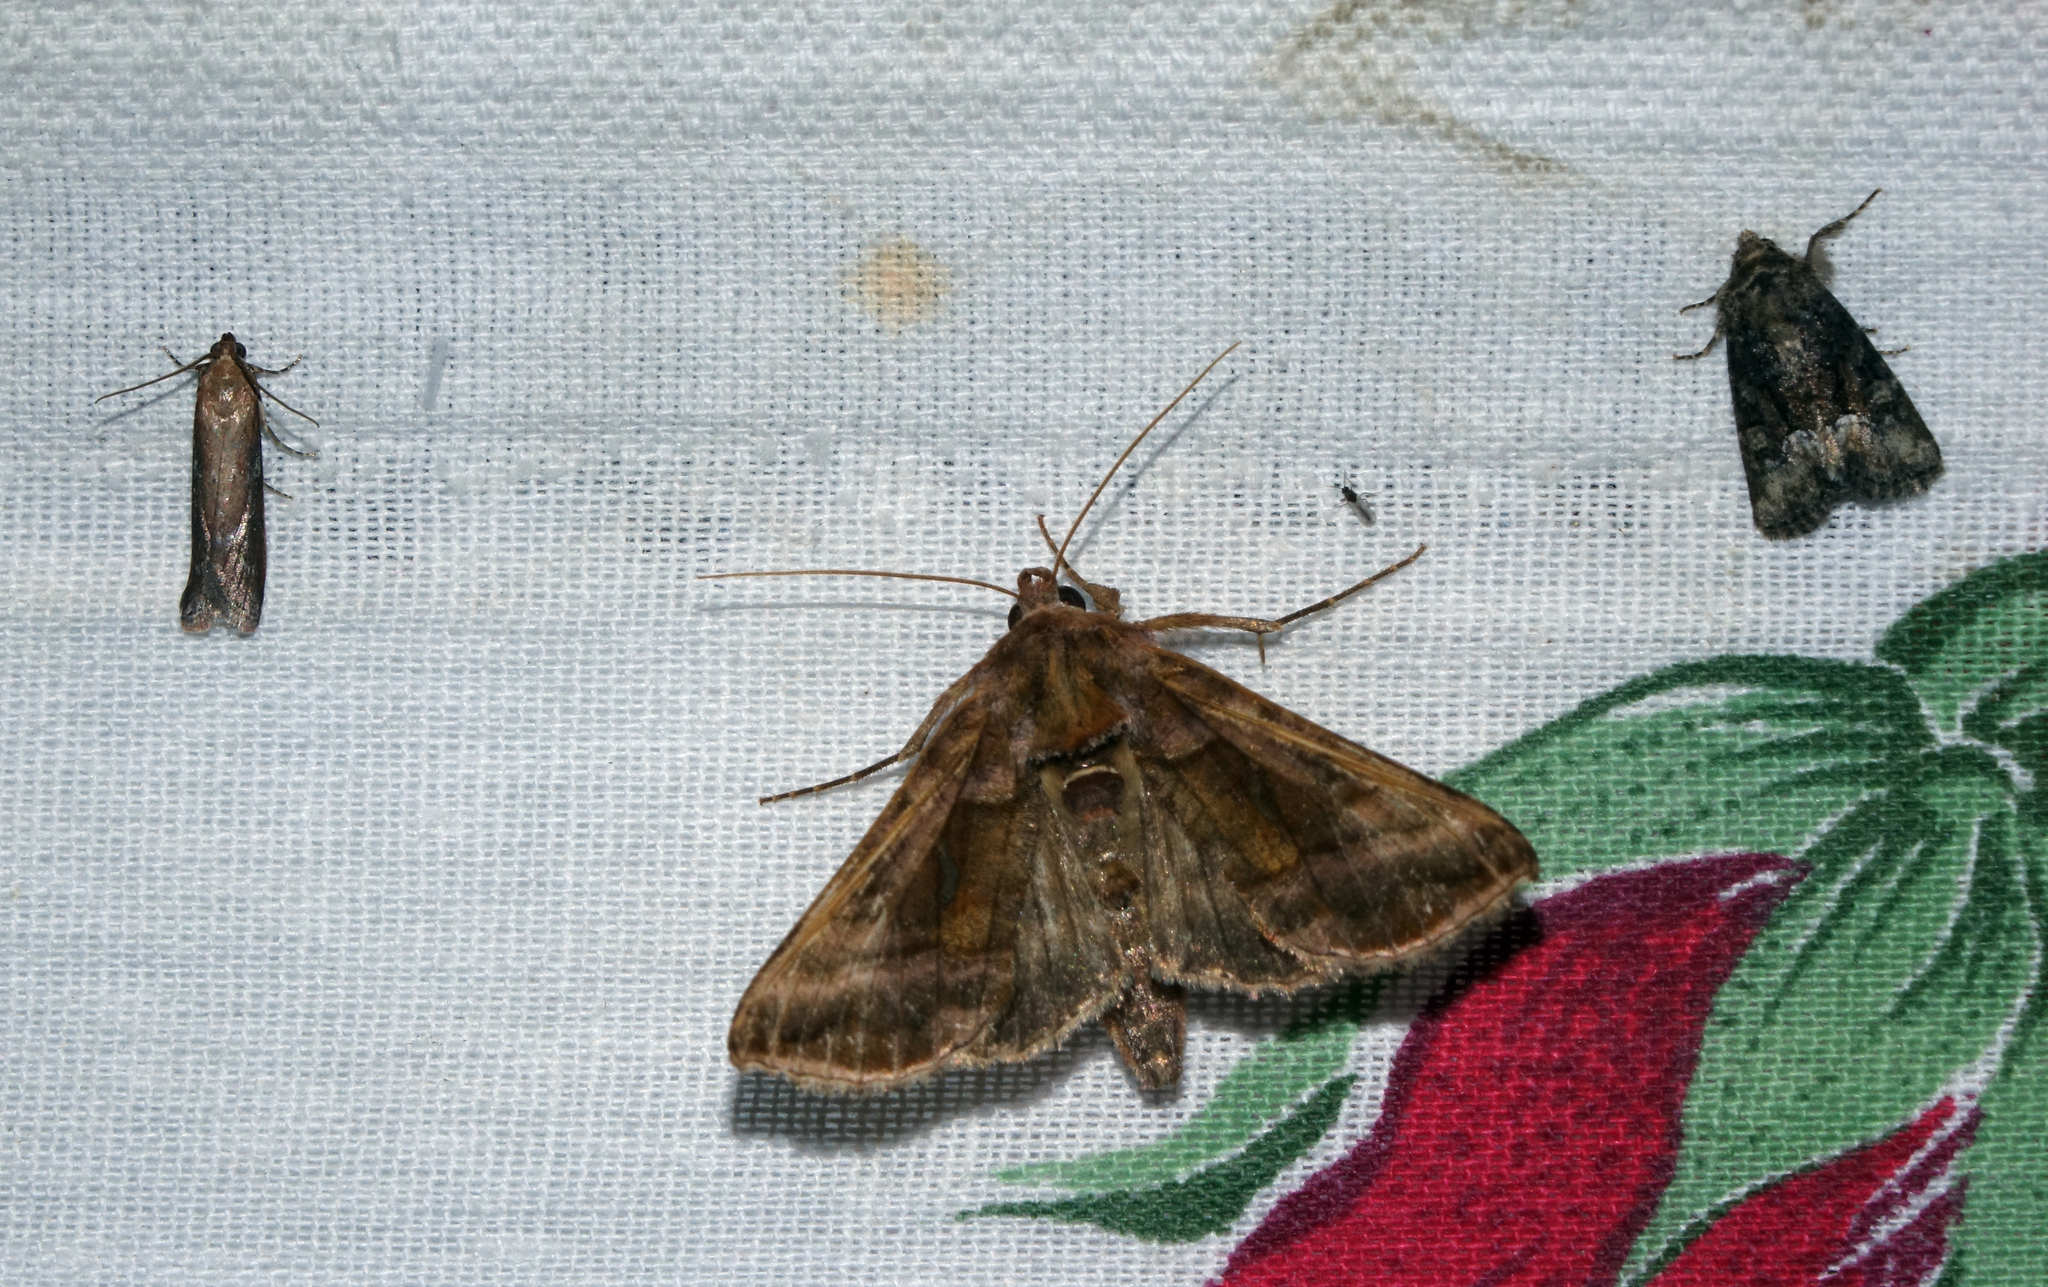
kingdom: Animalia
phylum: Arthropoda
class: Insecta
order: Lepidoptera
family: Noctuidae
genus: Autographa
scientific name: Autographa jota
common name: Plain golden y
